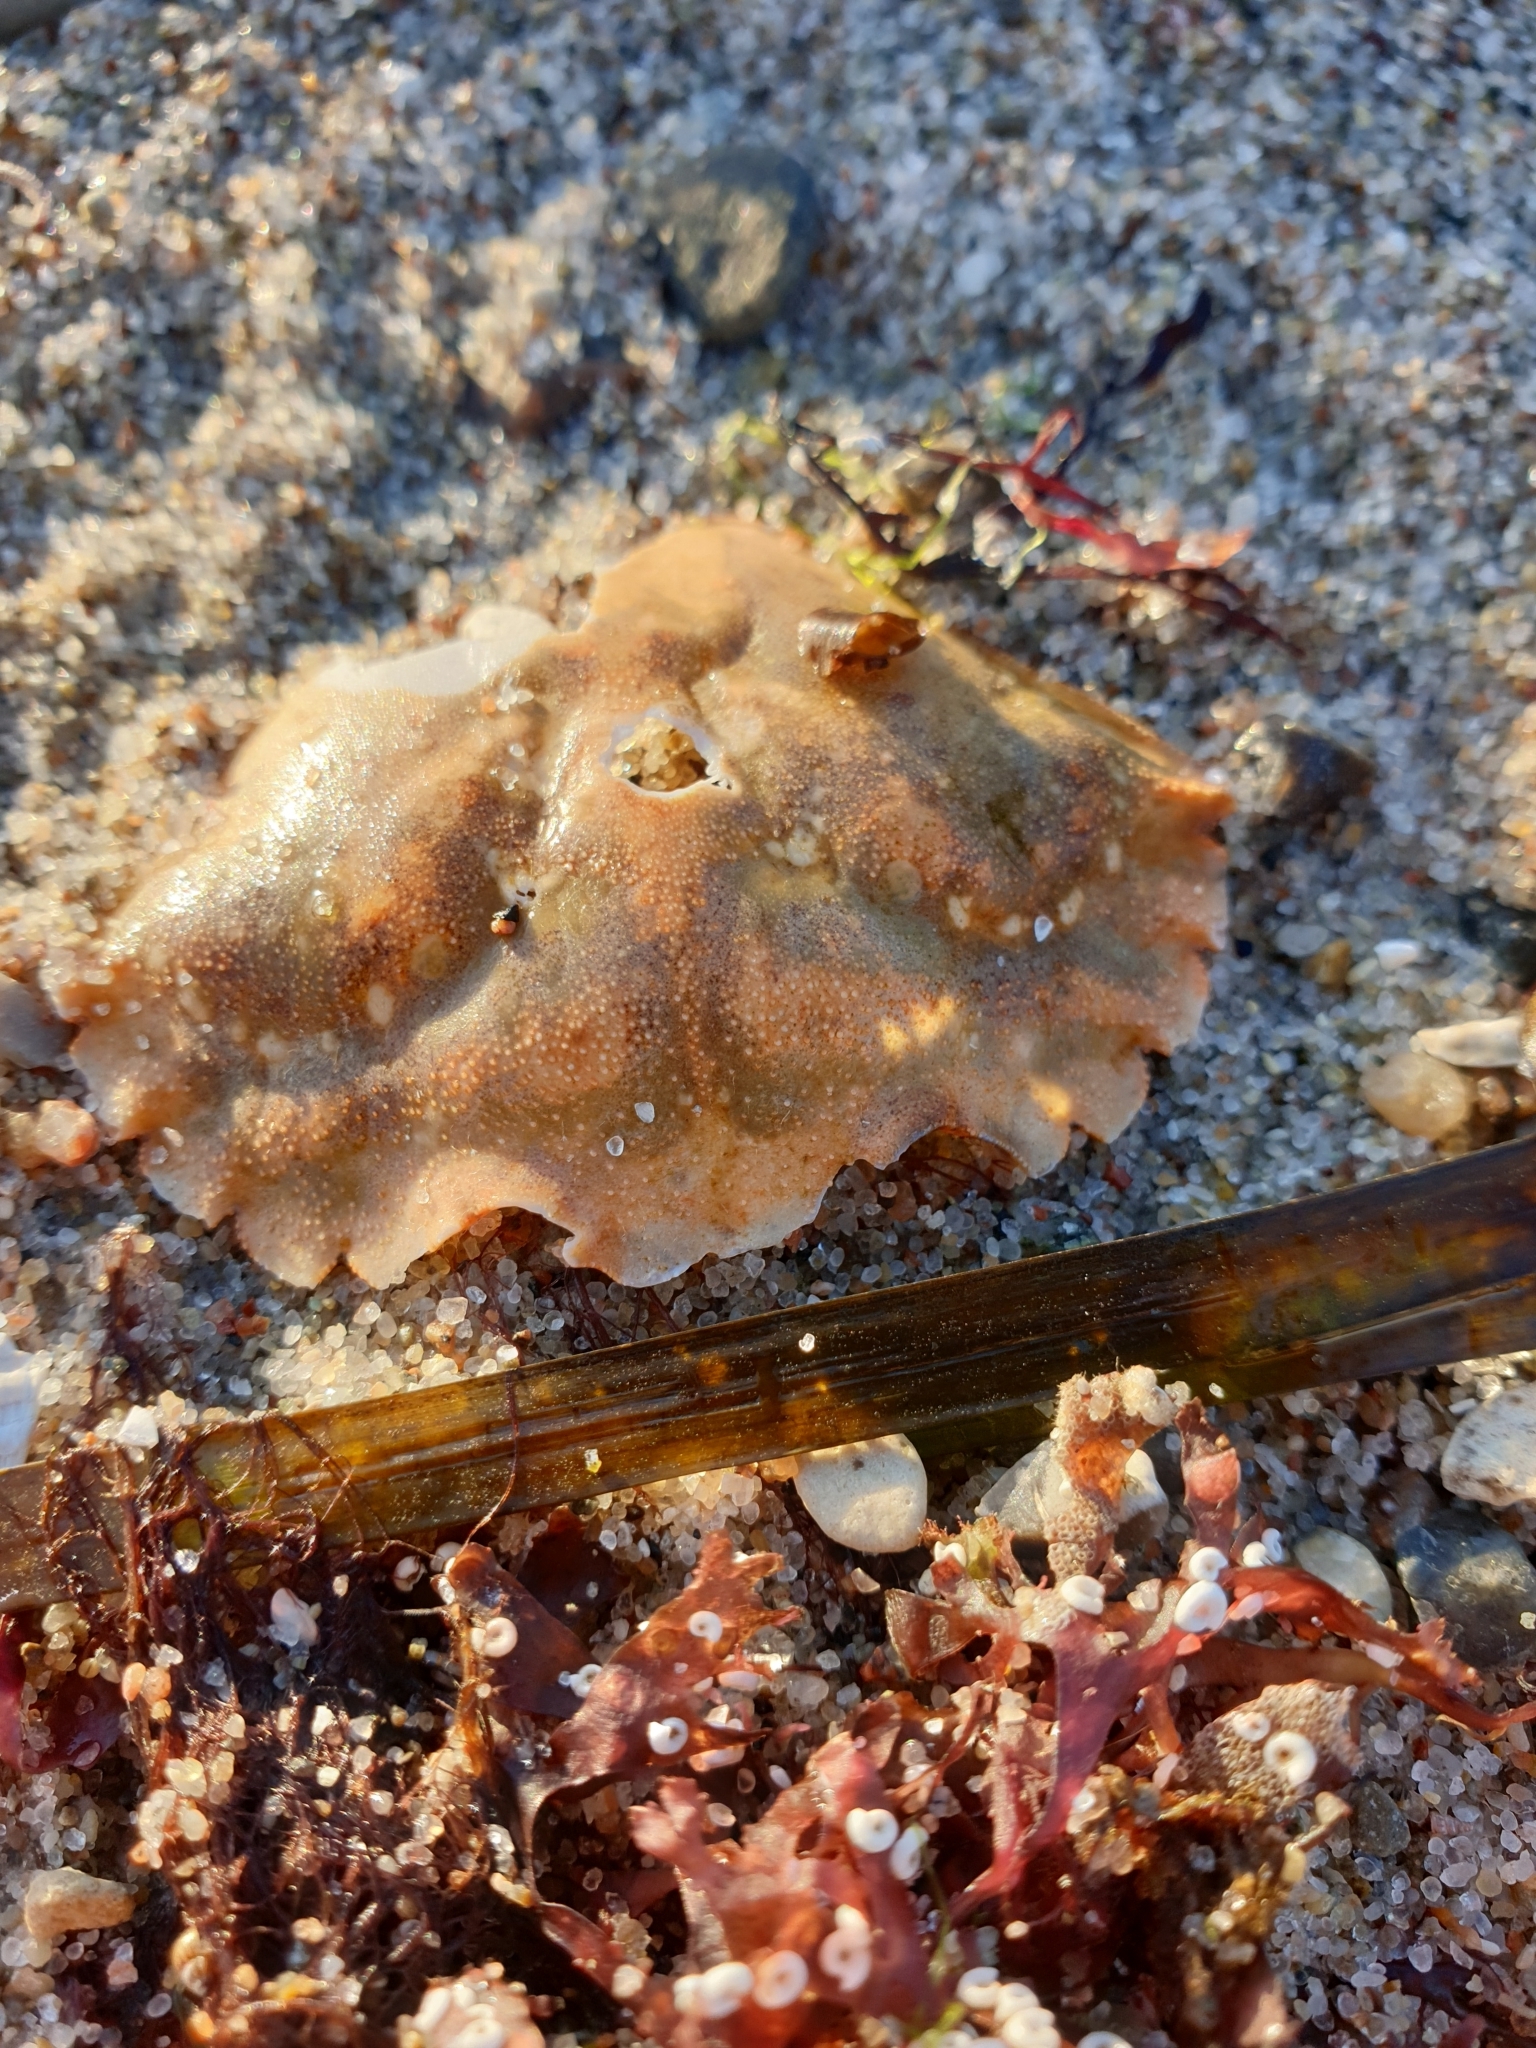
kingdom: Animalia
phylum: Arthropoda
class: Malacostraca
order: Decapoda
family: Carcinidae
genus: Carcinus
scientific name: Carcinus maenas
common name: European green crab
